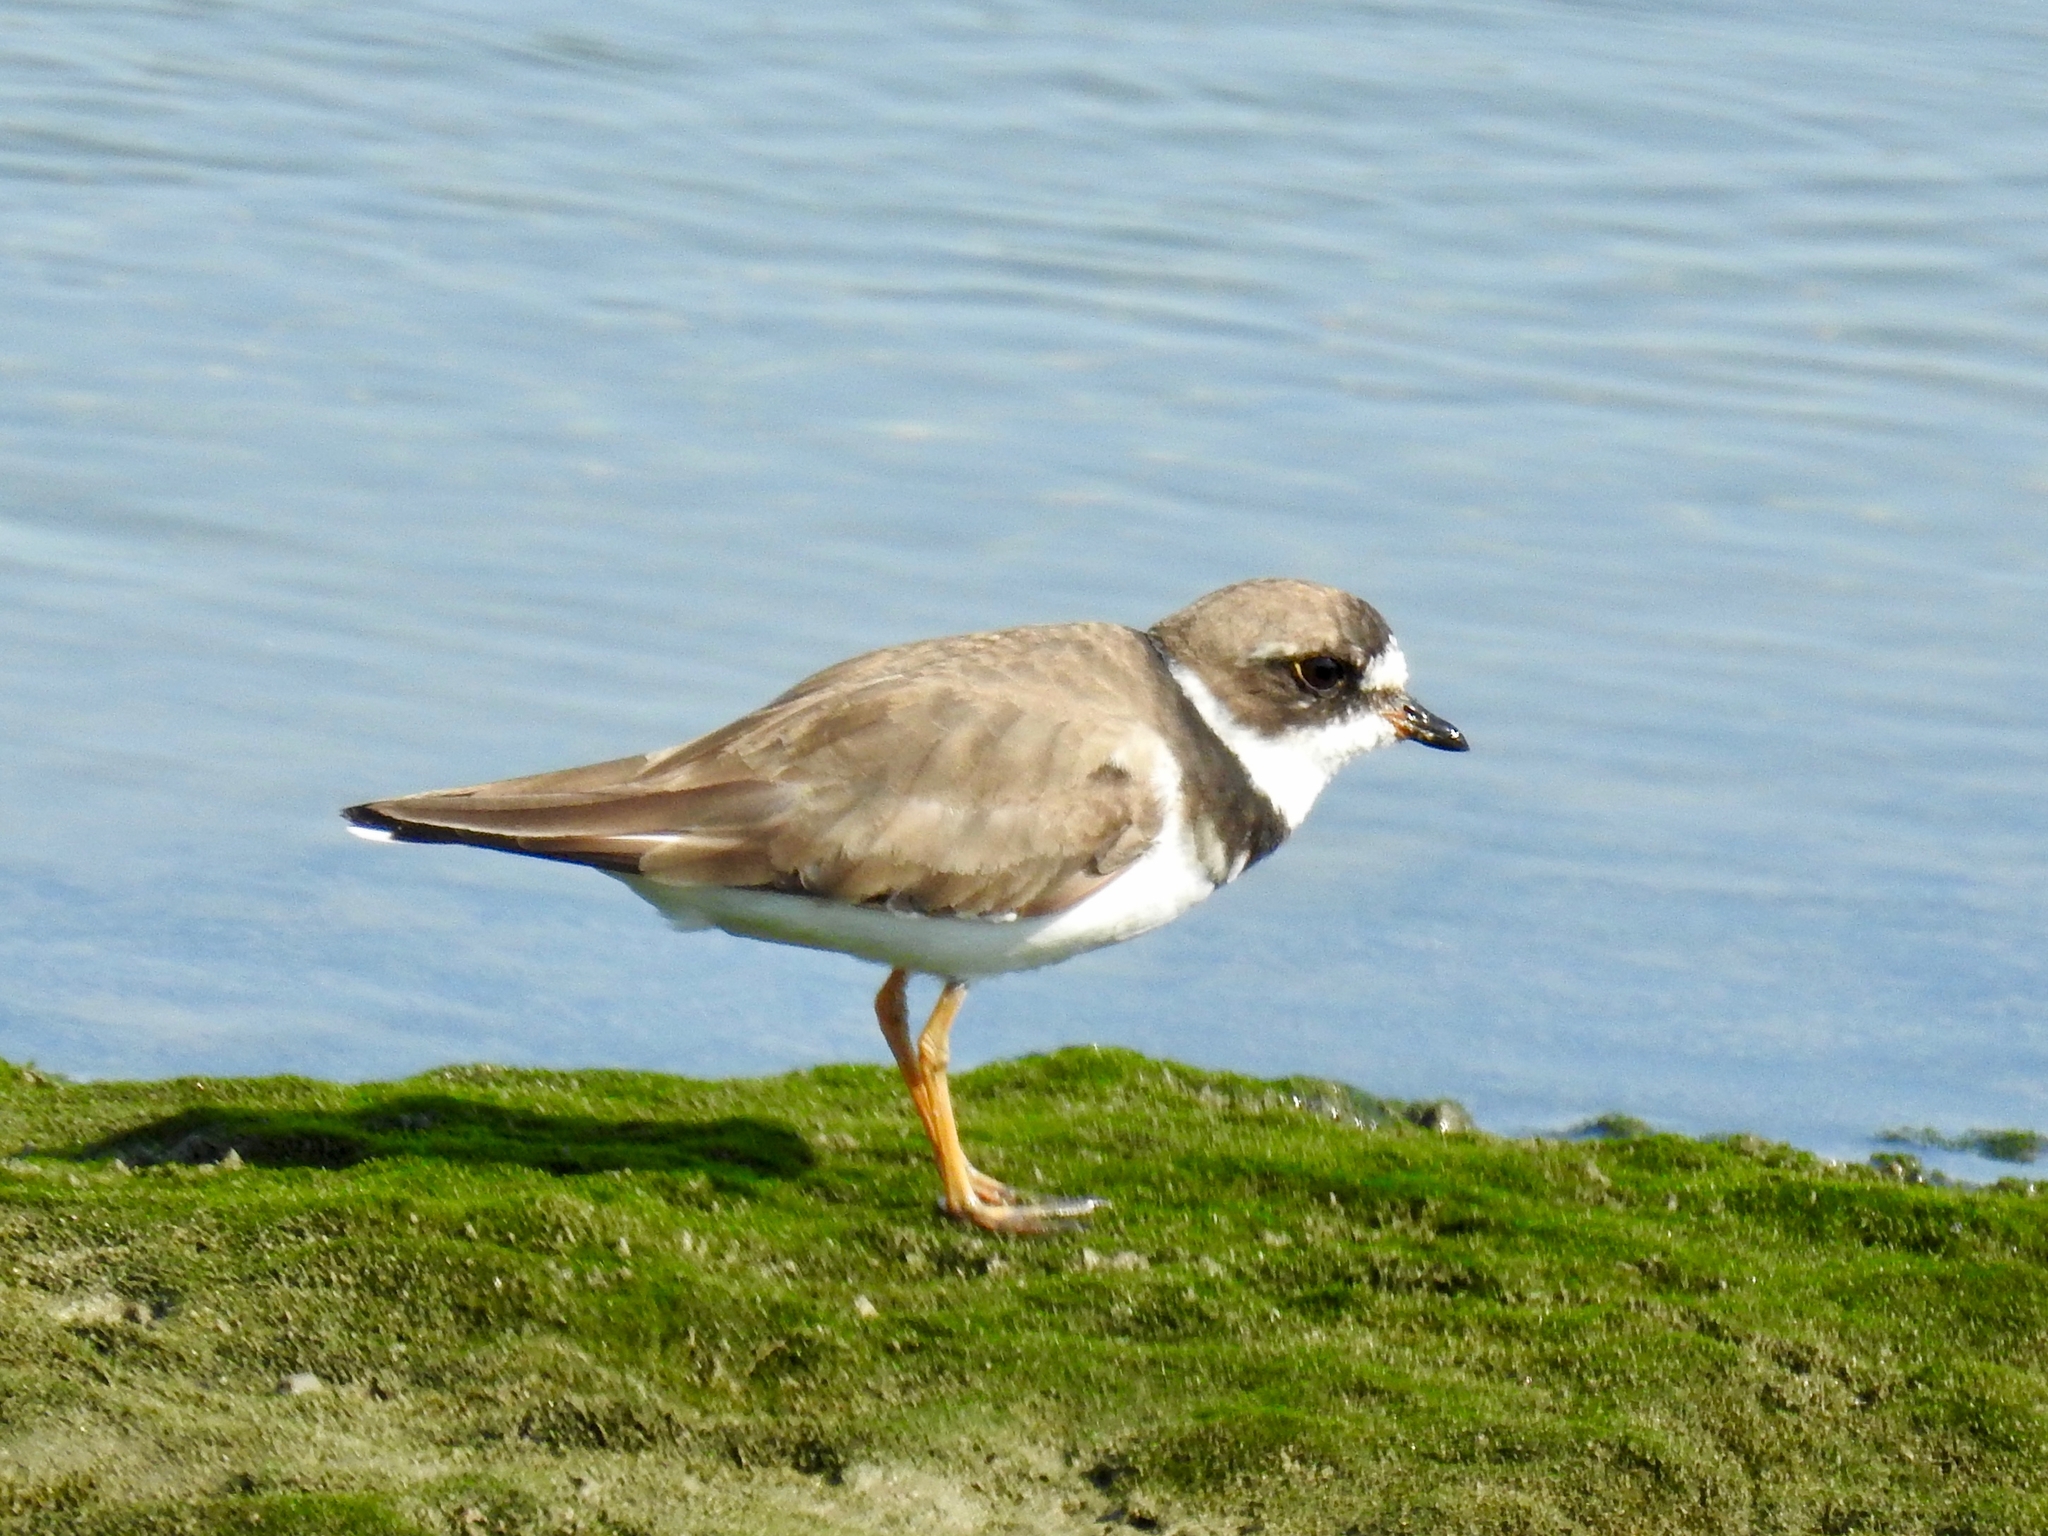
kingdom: Animalia
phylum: Chordata
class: Aves
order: Charadriiformes
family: Charadriidae
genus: Charadrius
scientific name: Charadrius semipalmatus
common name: Semipalmated plover
